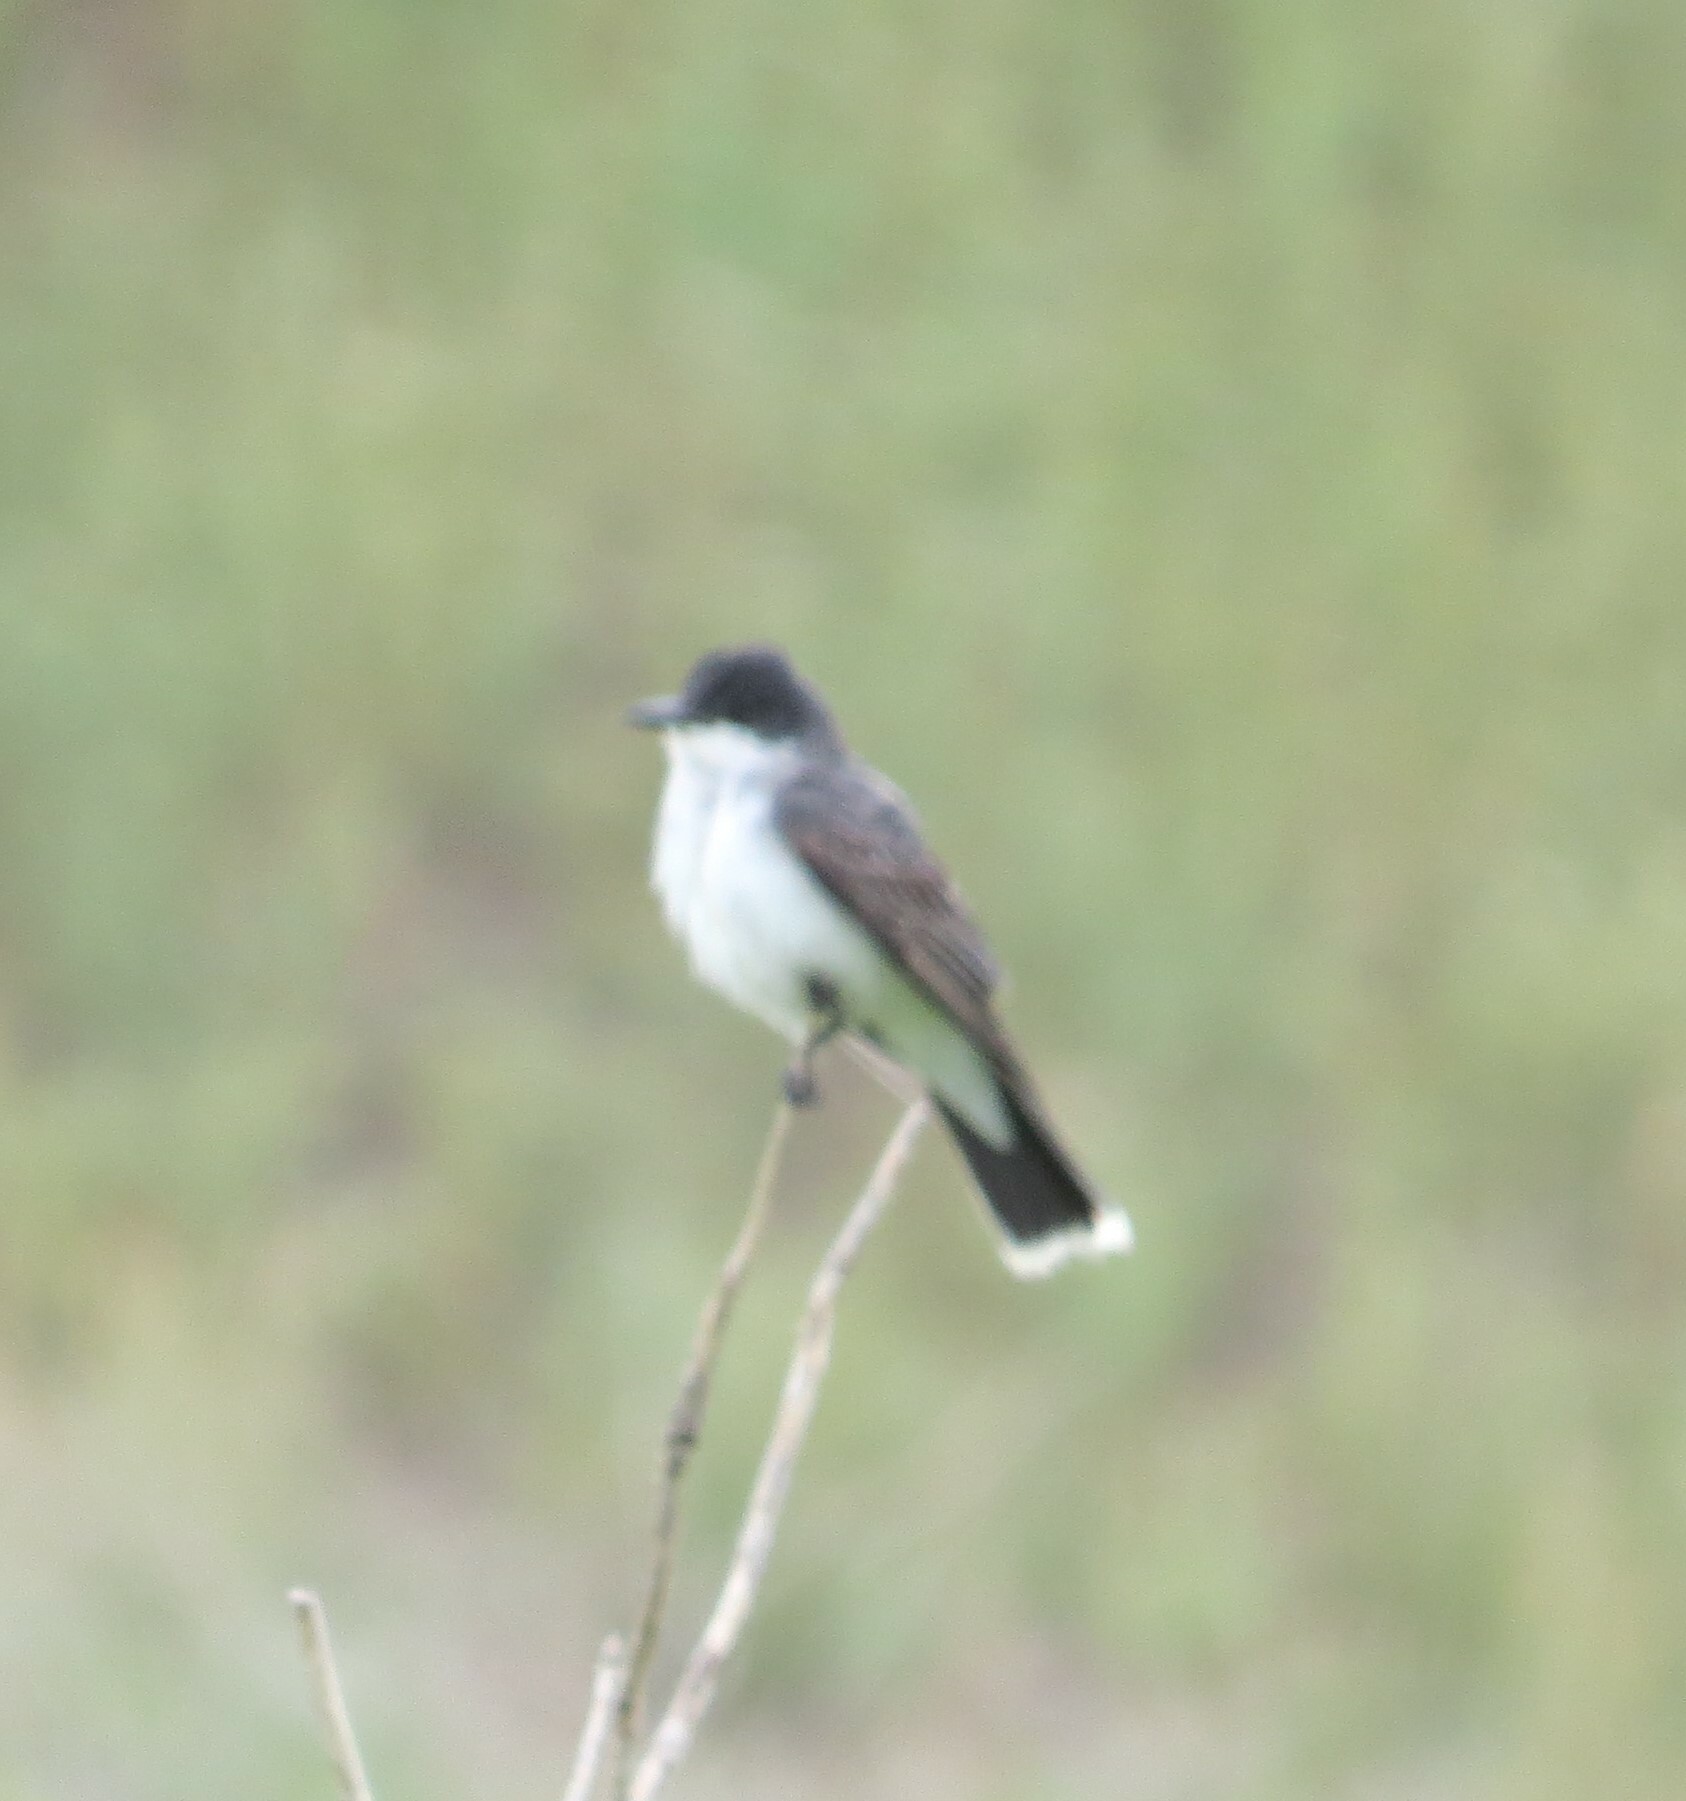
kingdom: Animalia
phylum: Chordata
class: Aves
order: Passeriformes
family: Tyrannidae
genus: Tyrannus
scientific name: Tyrannus tyrannus
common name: Eastern kingbird
